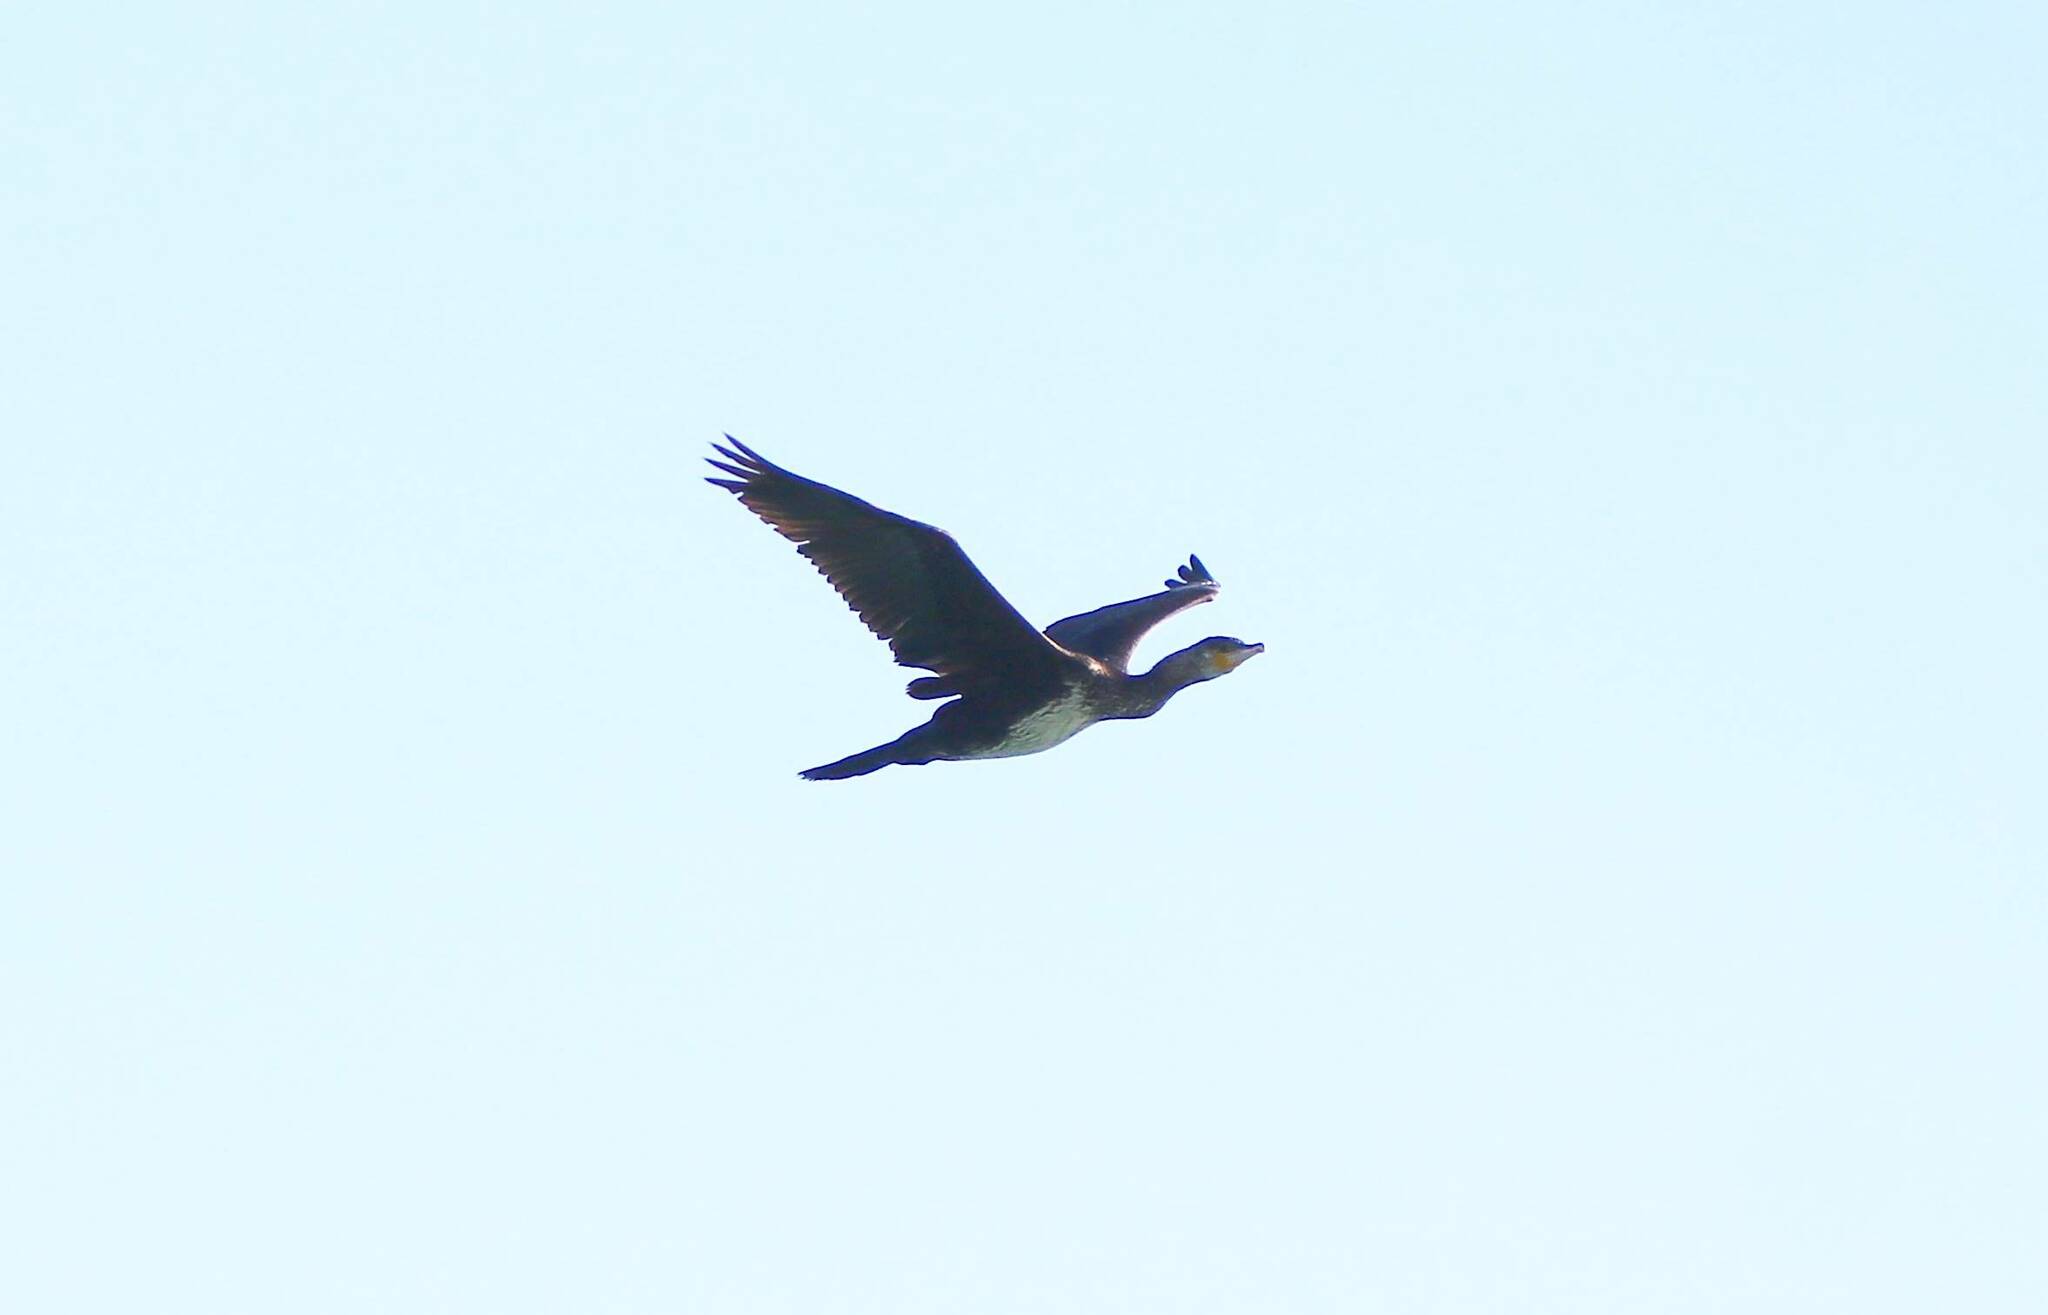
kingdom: Animalia
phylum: Chordata
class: Aves
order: Suliformes
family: Phalacrocoracidae
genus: Phalacrocorax
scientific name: Phalacrocorax carbo
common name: Great cormorant
